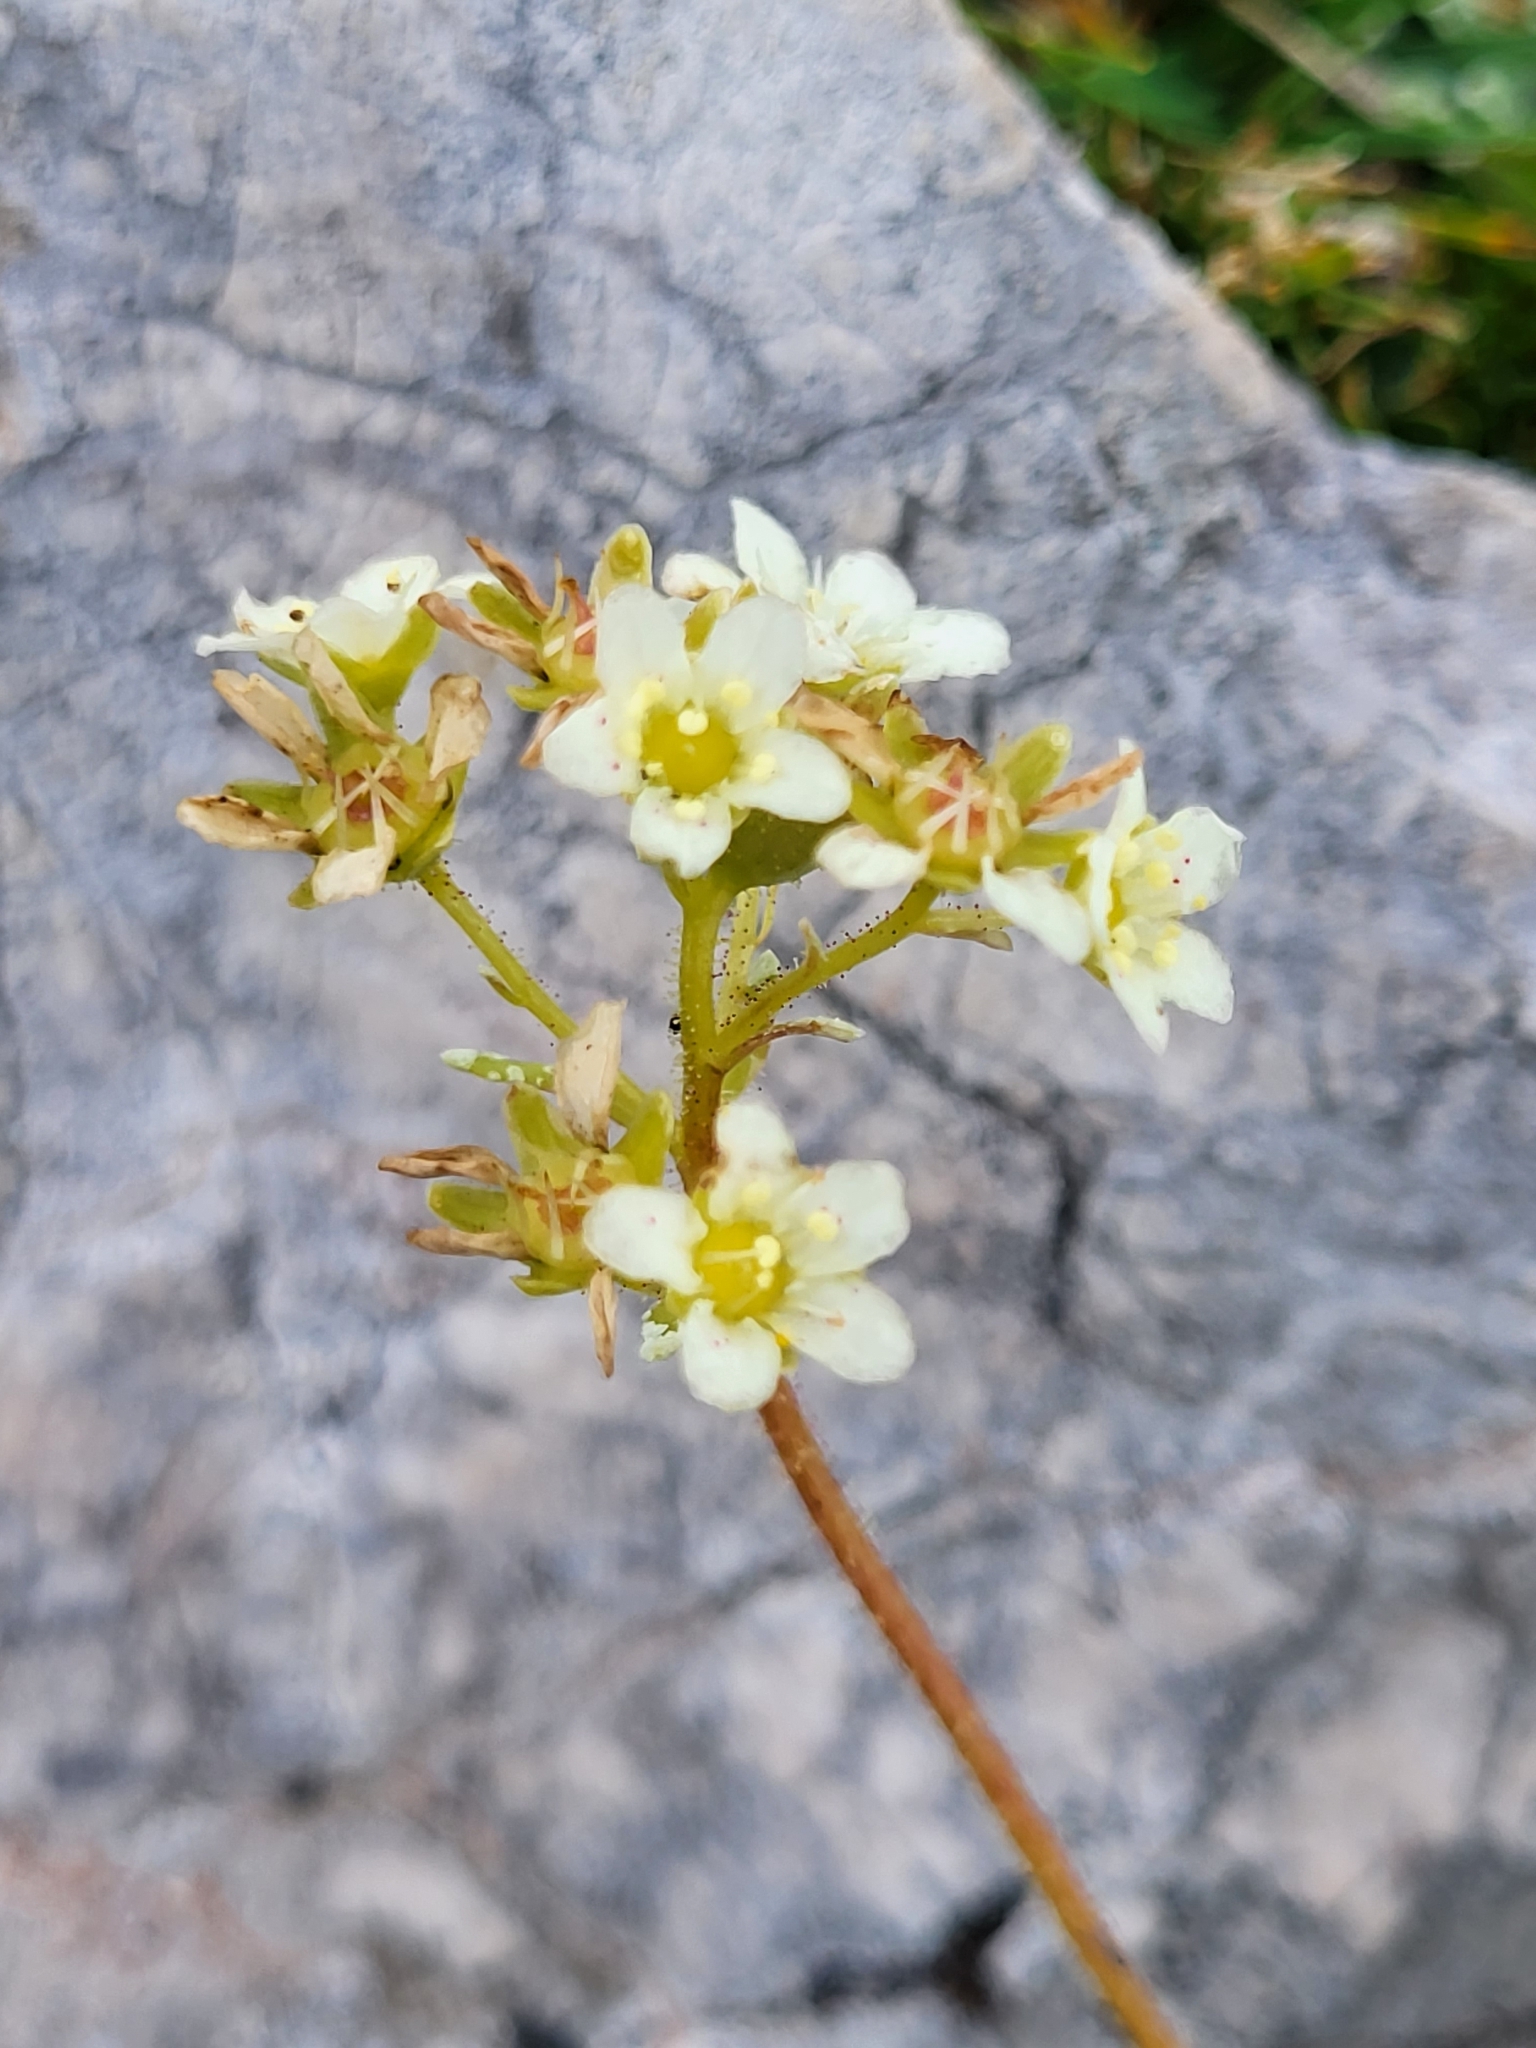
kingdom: Plantae
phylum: Tracheophyta
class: Magnoliopsida
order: Saxifragales
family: Saxifragaceae
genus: Saxifraga
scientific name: Saxifraga crustata
